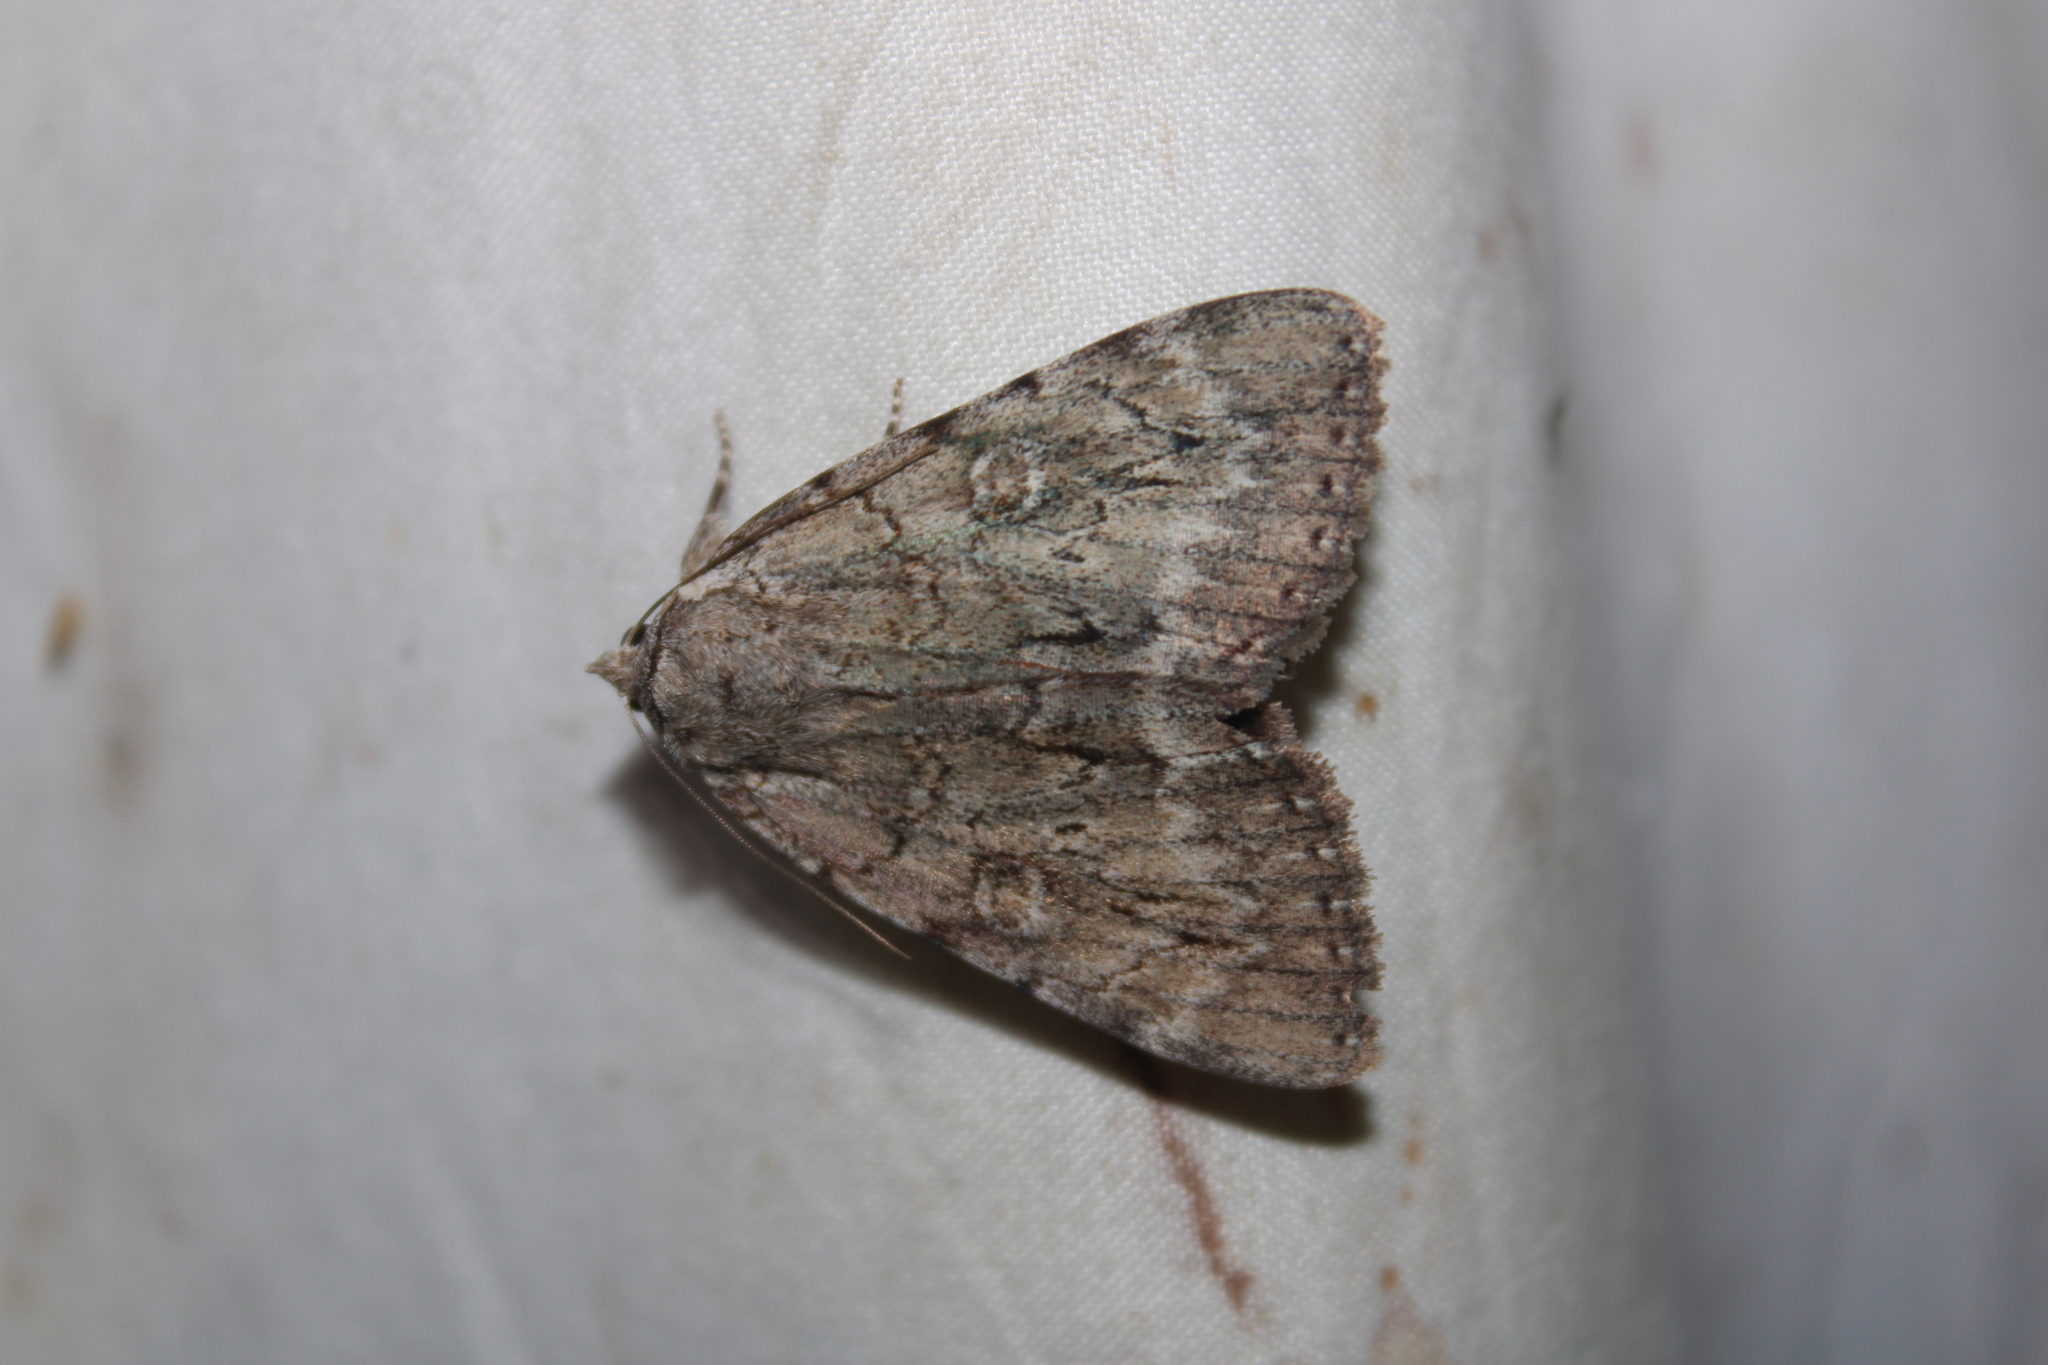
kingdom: Animalia
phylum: Arthropoda
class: Insecta
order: Lepidoptera
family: Erebidae
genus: Catocala
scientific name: Catocala judith
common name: Judith's underwing
